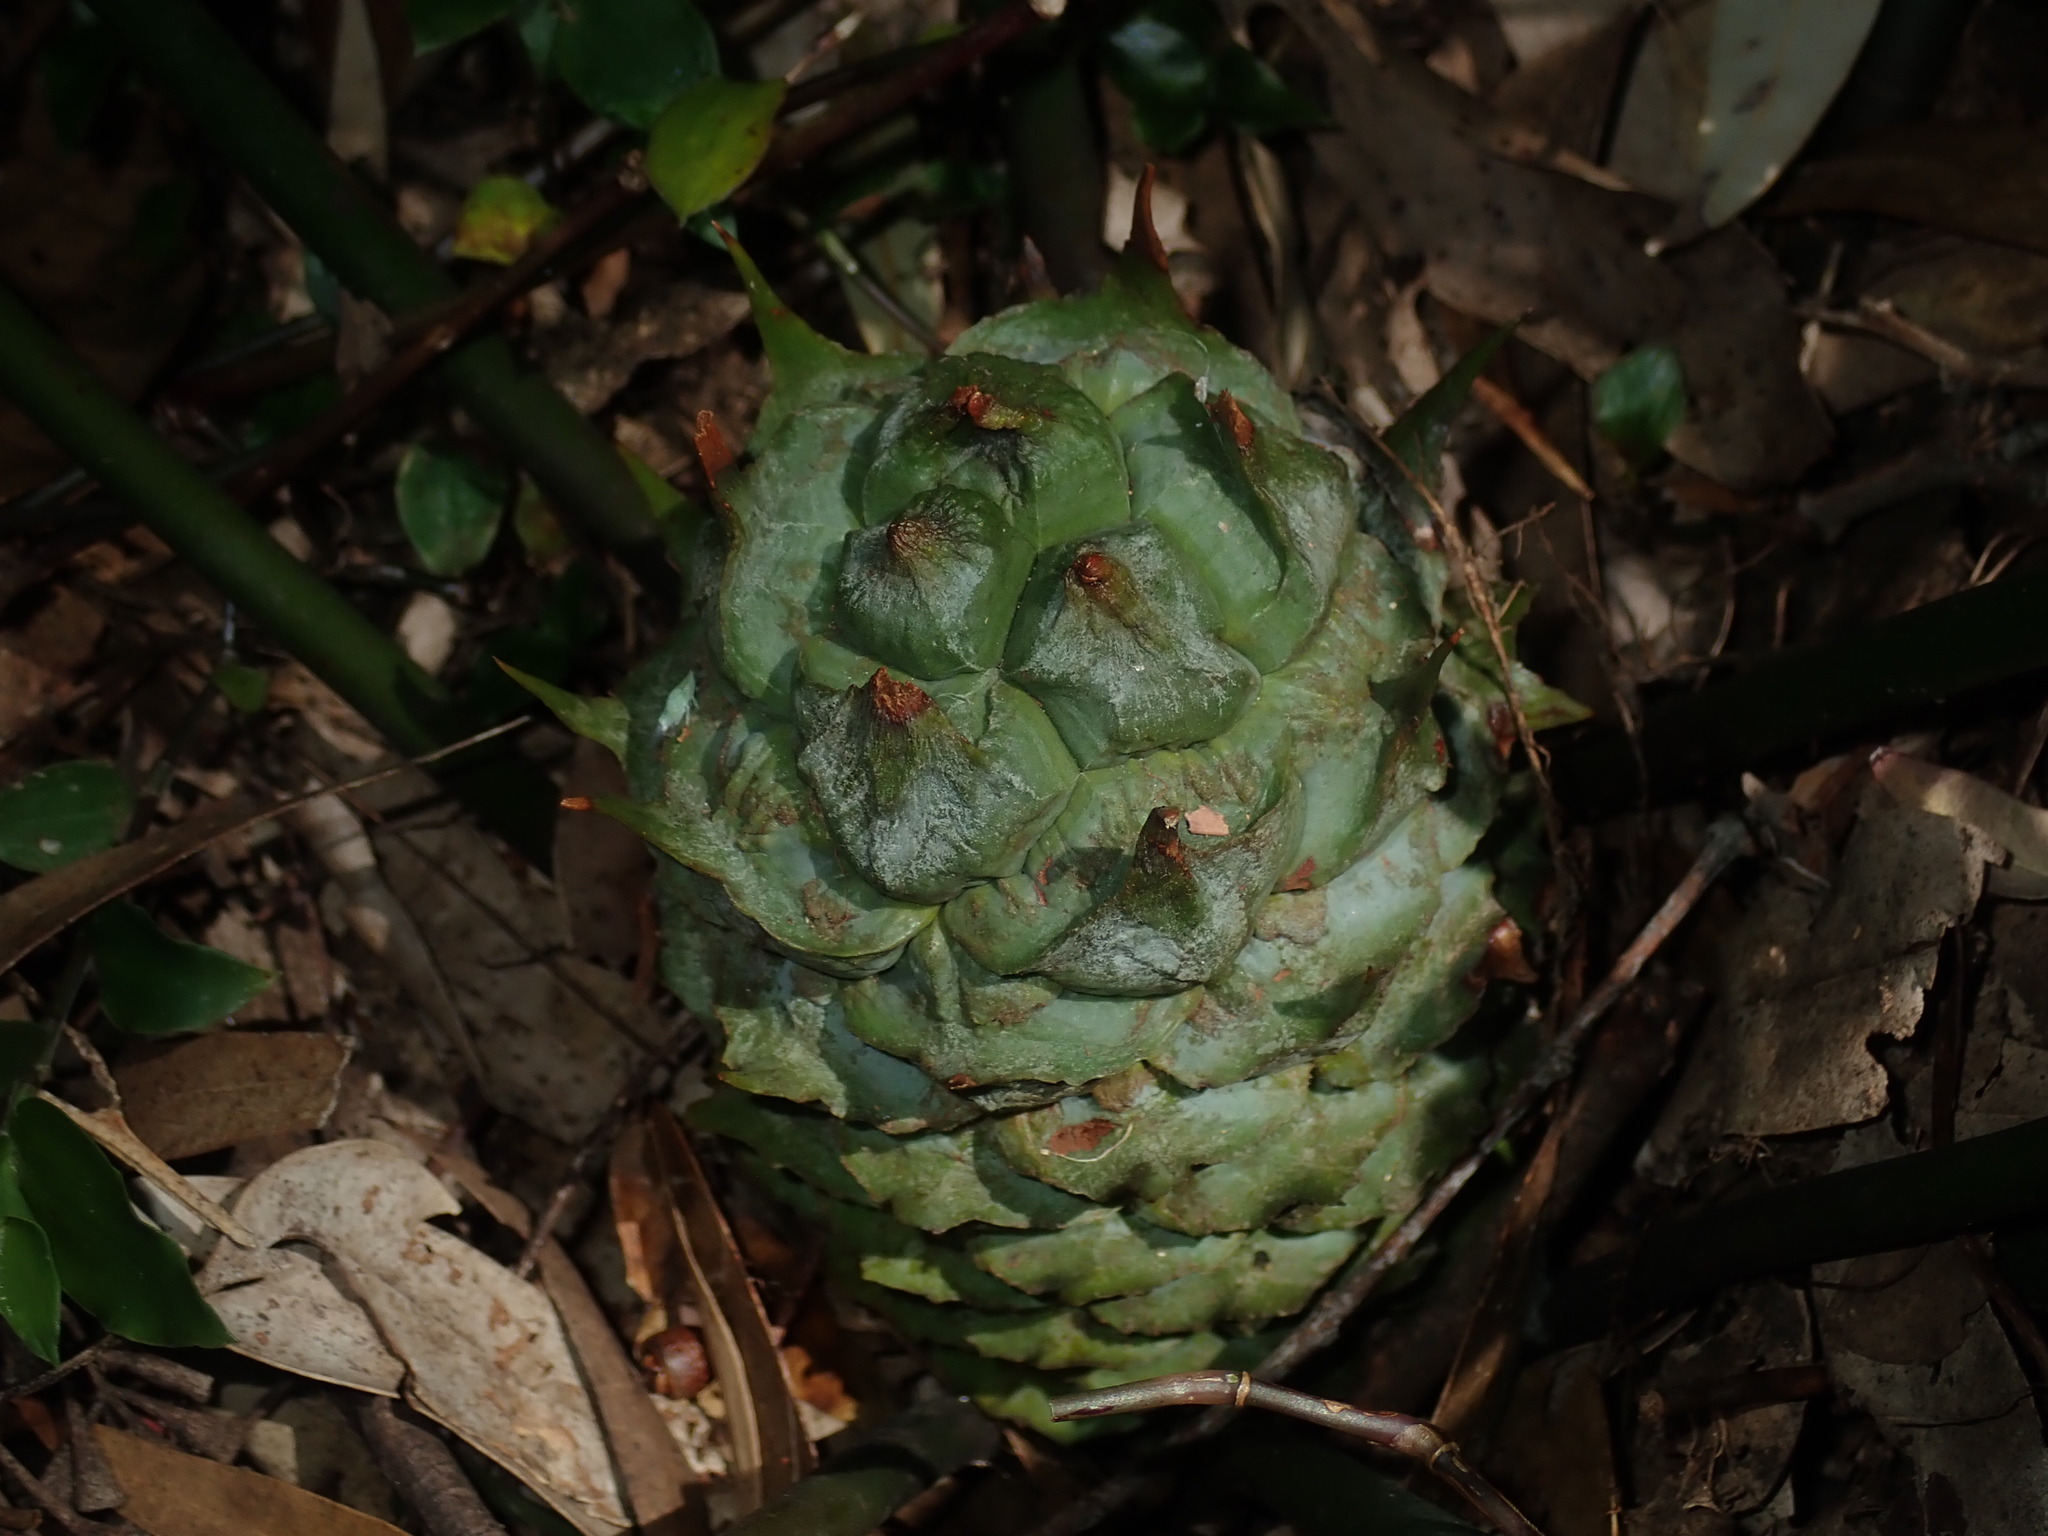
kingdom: Plantae
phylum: Tracheophyta
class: Cycadopsida
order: Cycadales
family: Zamiaceae
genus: Macrozamia
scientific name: Macrozamia spiralis
